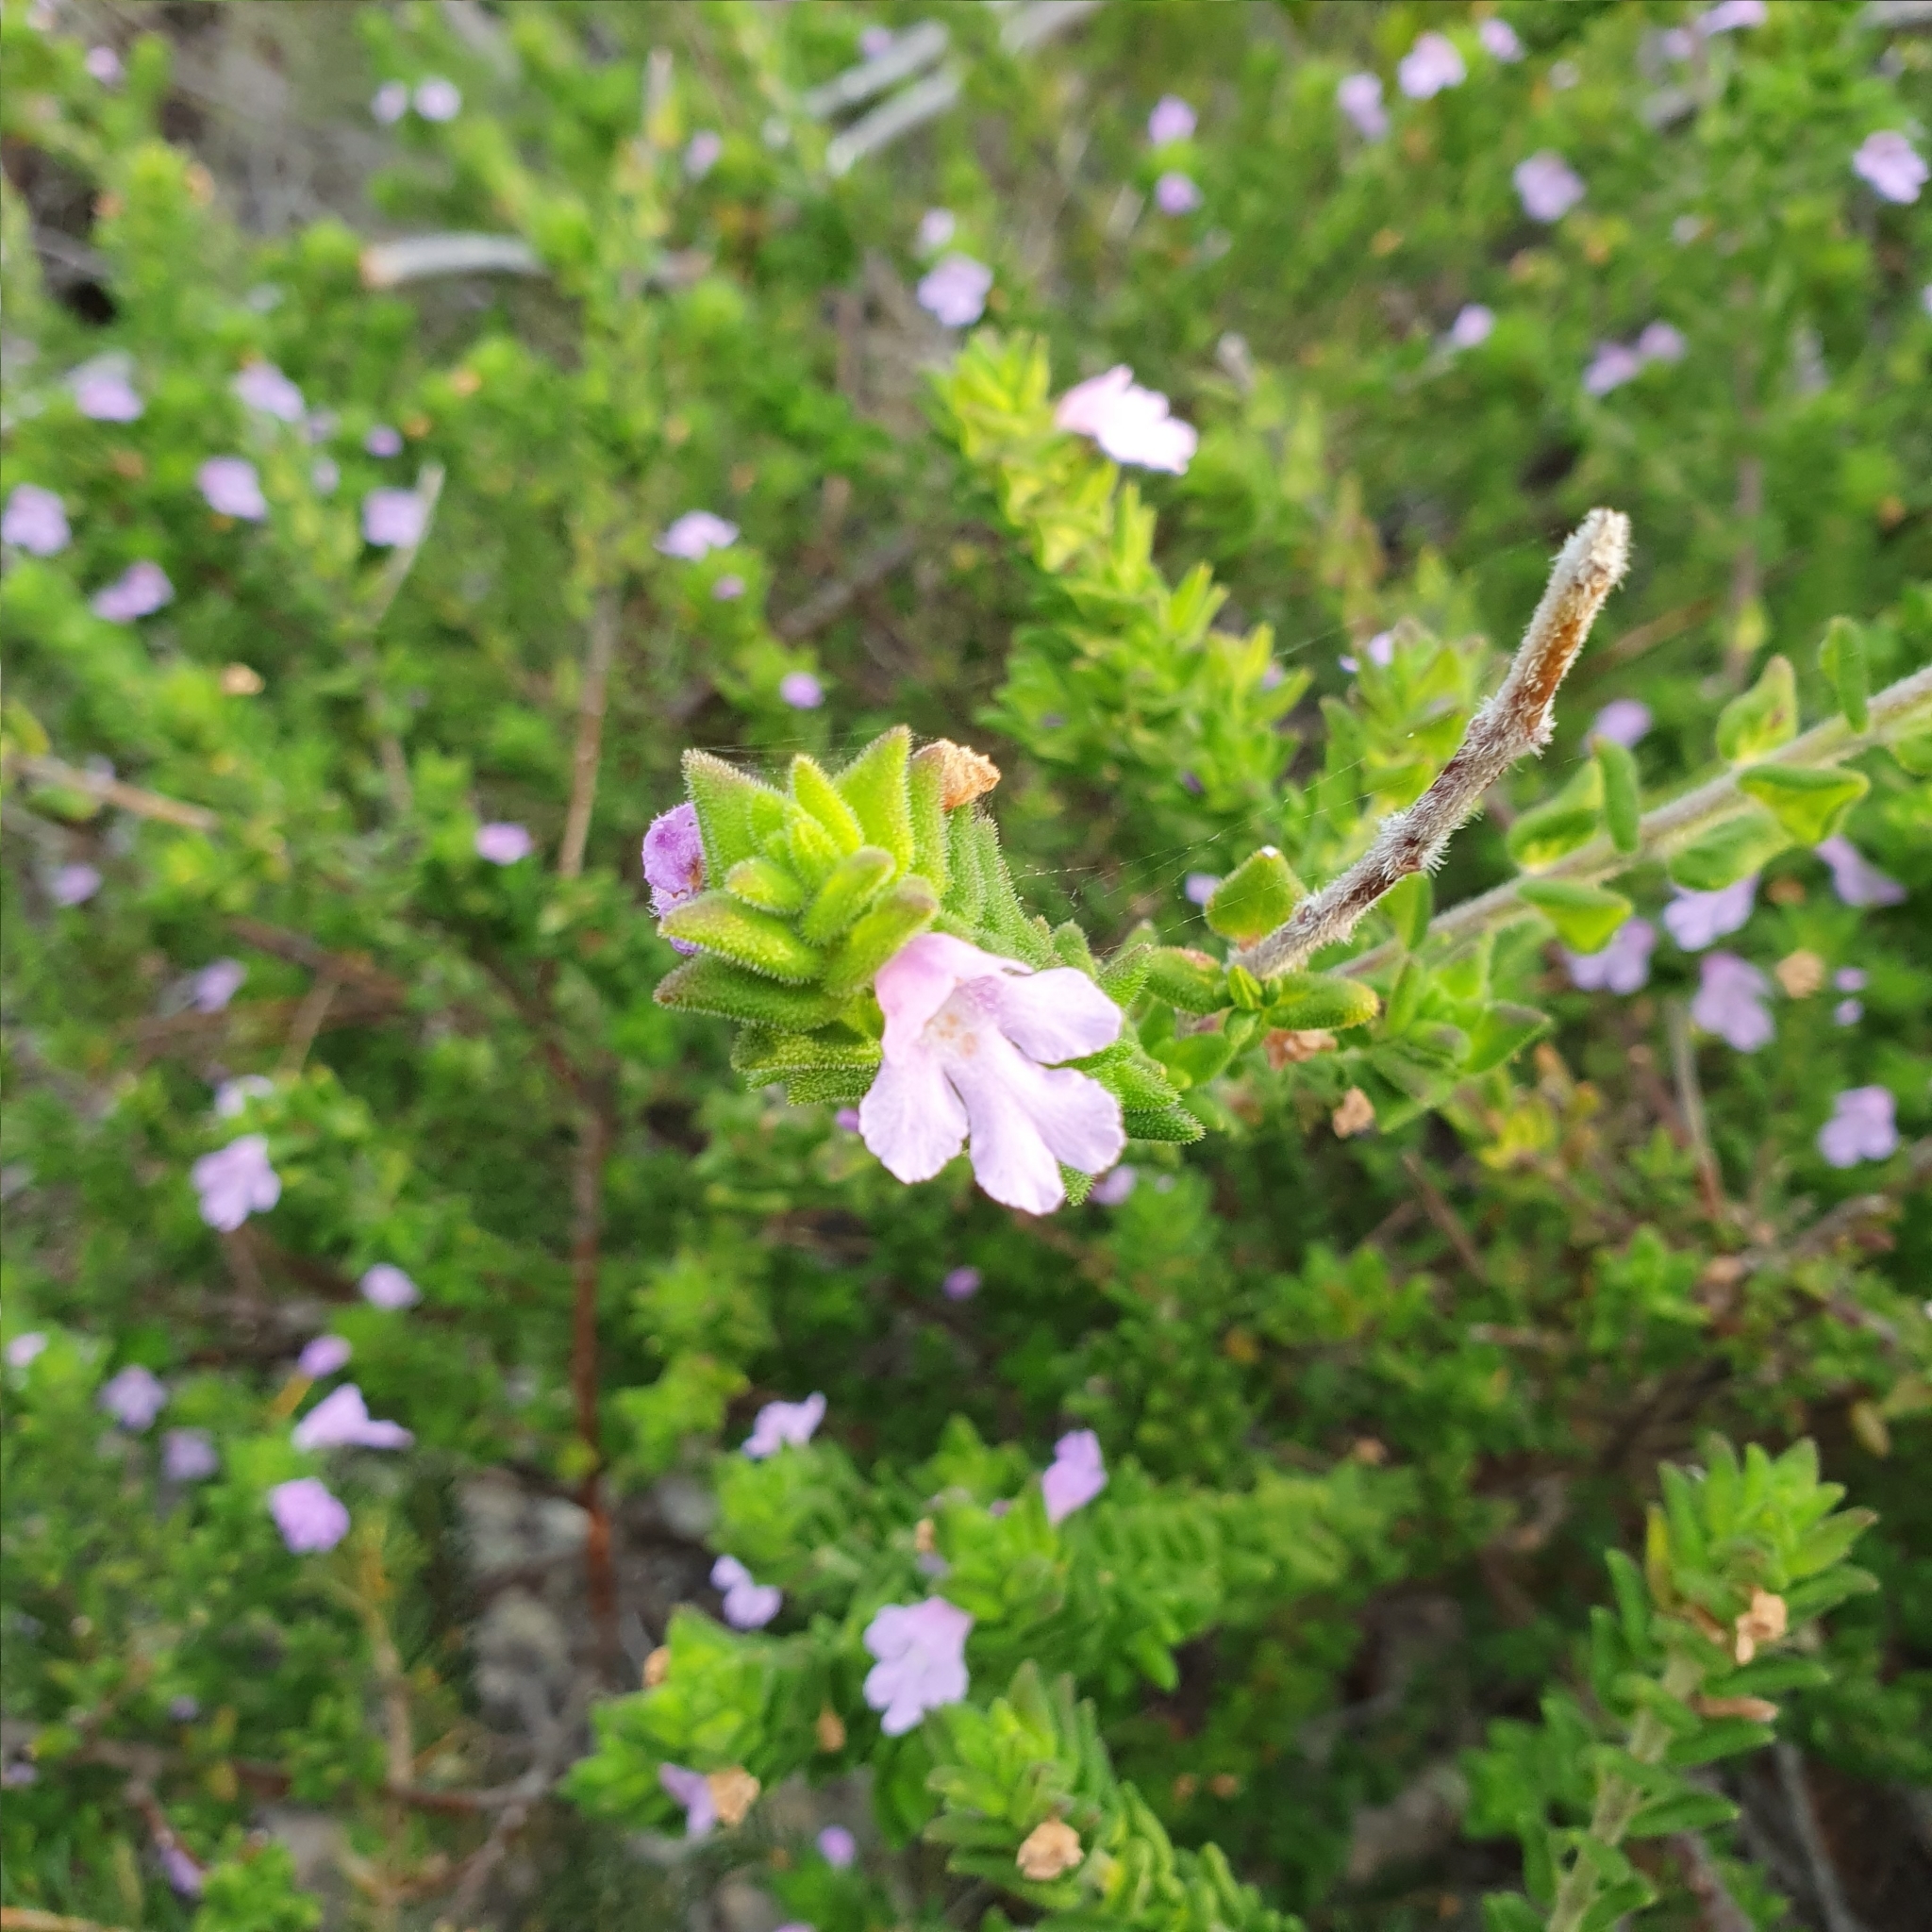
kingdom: Plantae
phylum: Tracheophyta
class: Magnoliopsida
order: Lamiales
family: Lamiaceae
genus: Prostanthera
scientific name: Prostanthera densa
